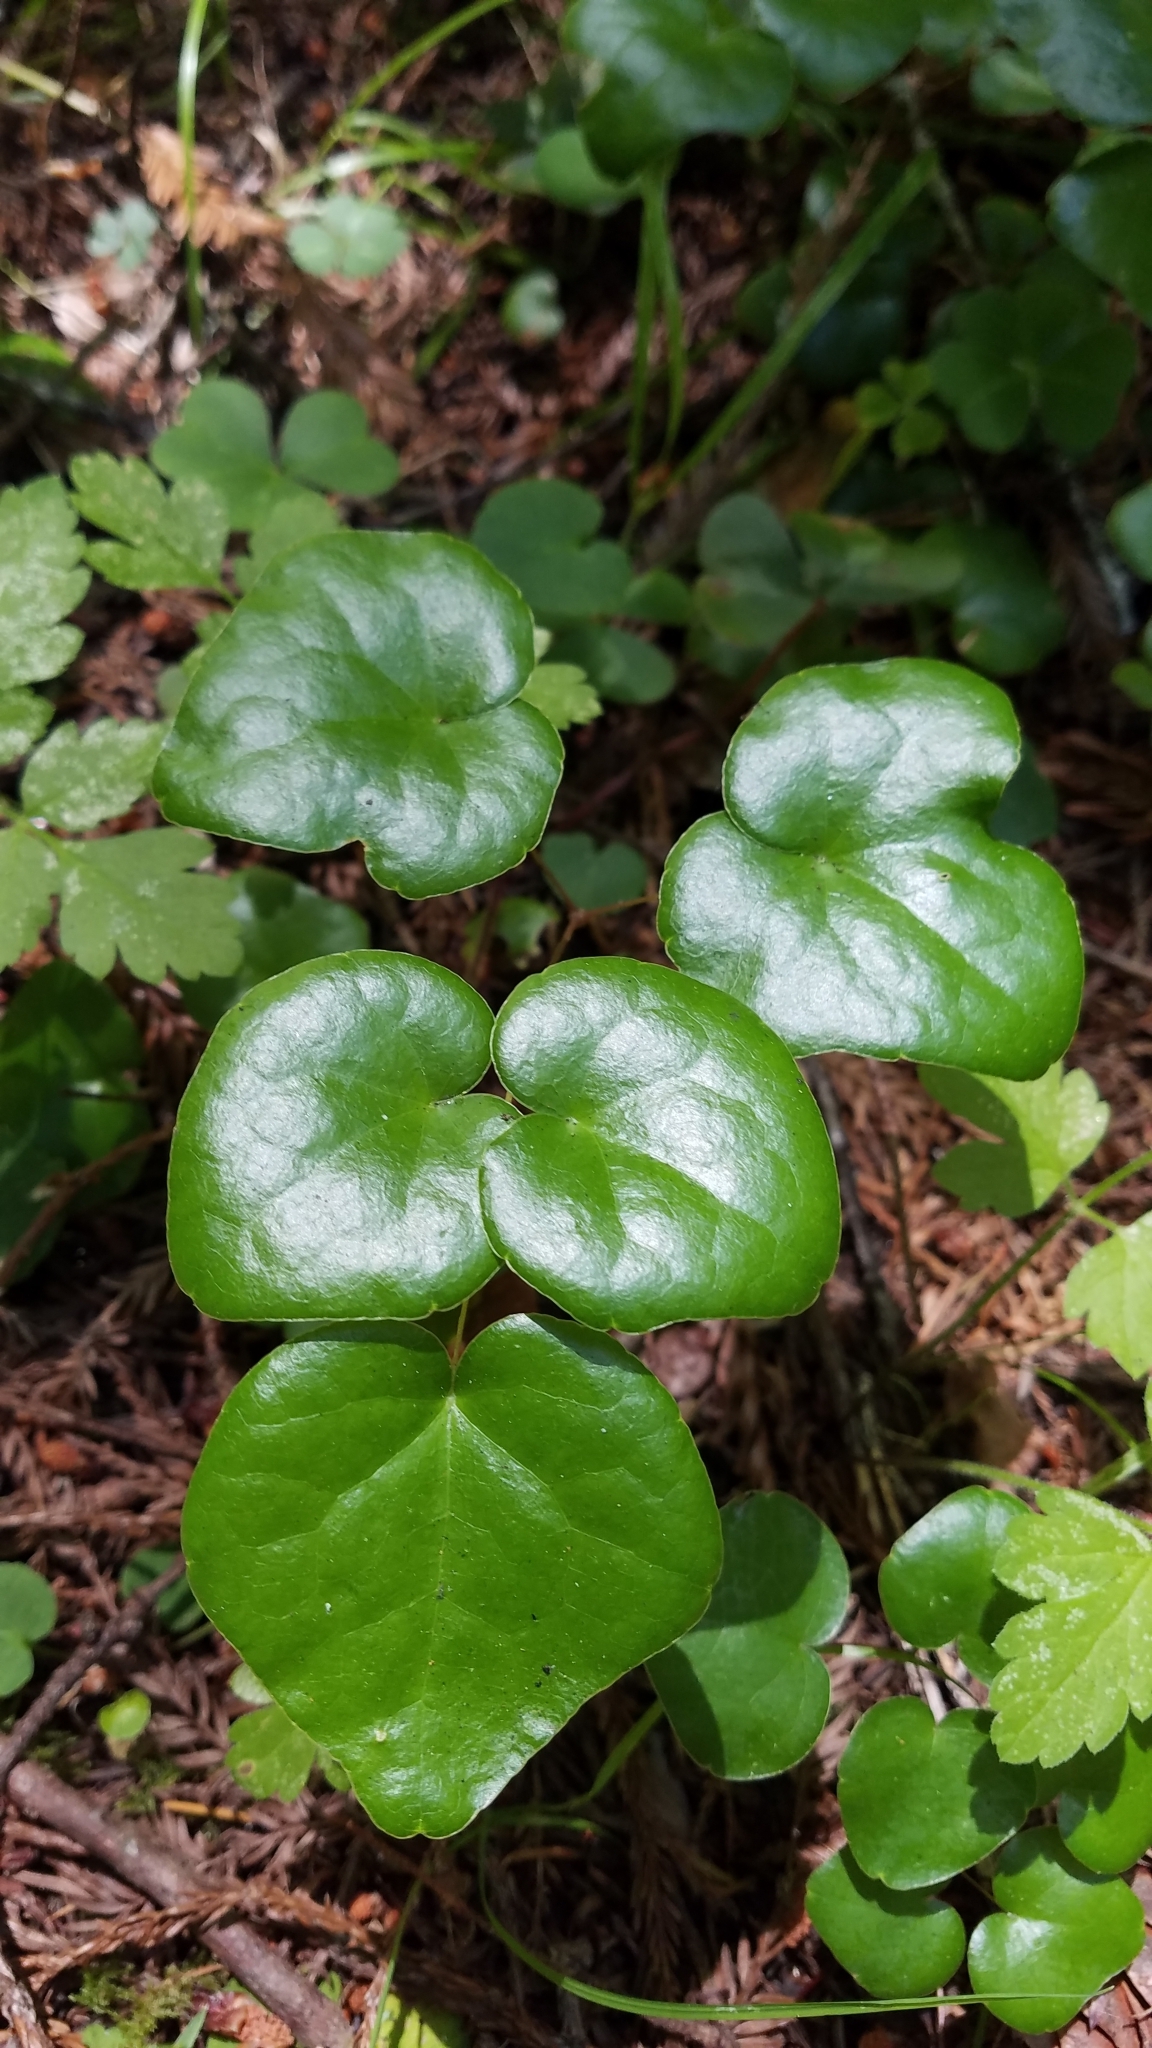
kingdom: Plantae
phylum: Tracheophyta
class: Magnoliopsida
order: Ranunculales
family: Berberidaceae
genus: Vancouveria
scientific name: Vancouveria planipetala
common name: Redwood-ivy
